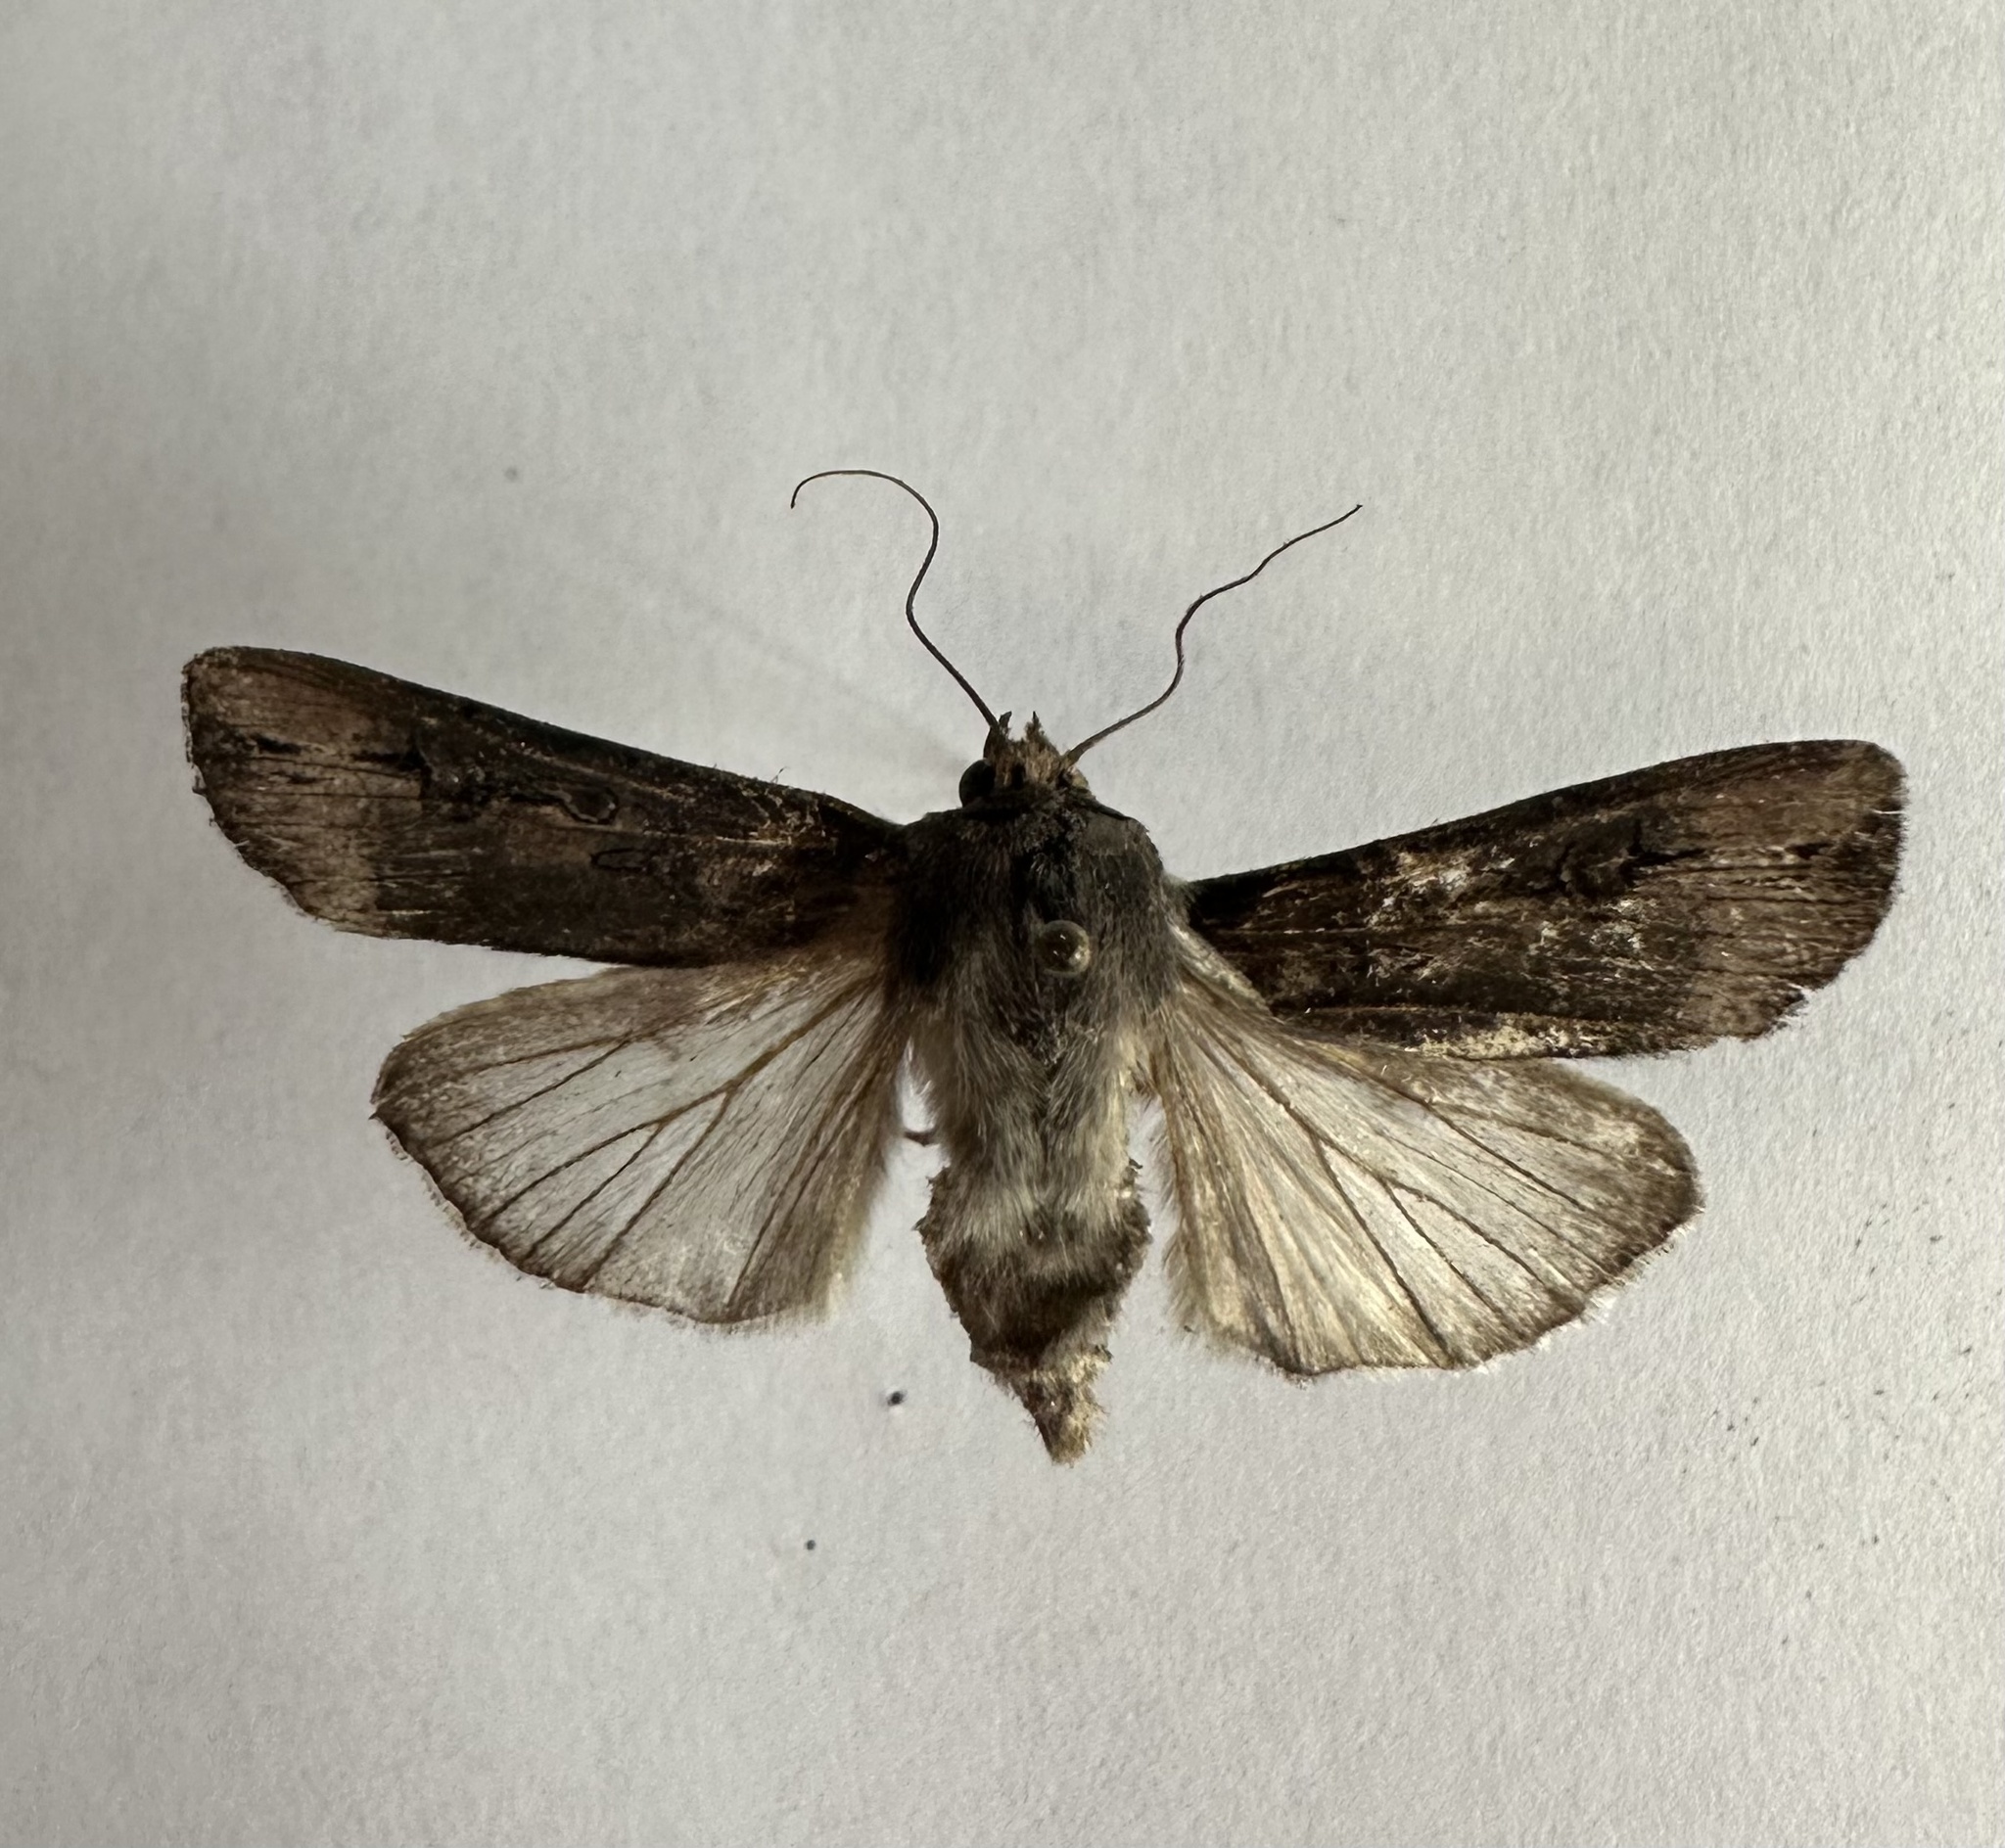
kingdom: Animalia
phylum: Arthropoda
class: Insecta
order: Lepidoptera
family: Noctuidae
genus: Agrotis
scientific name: Agrotis ipsilon
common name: Dark sword-grass
